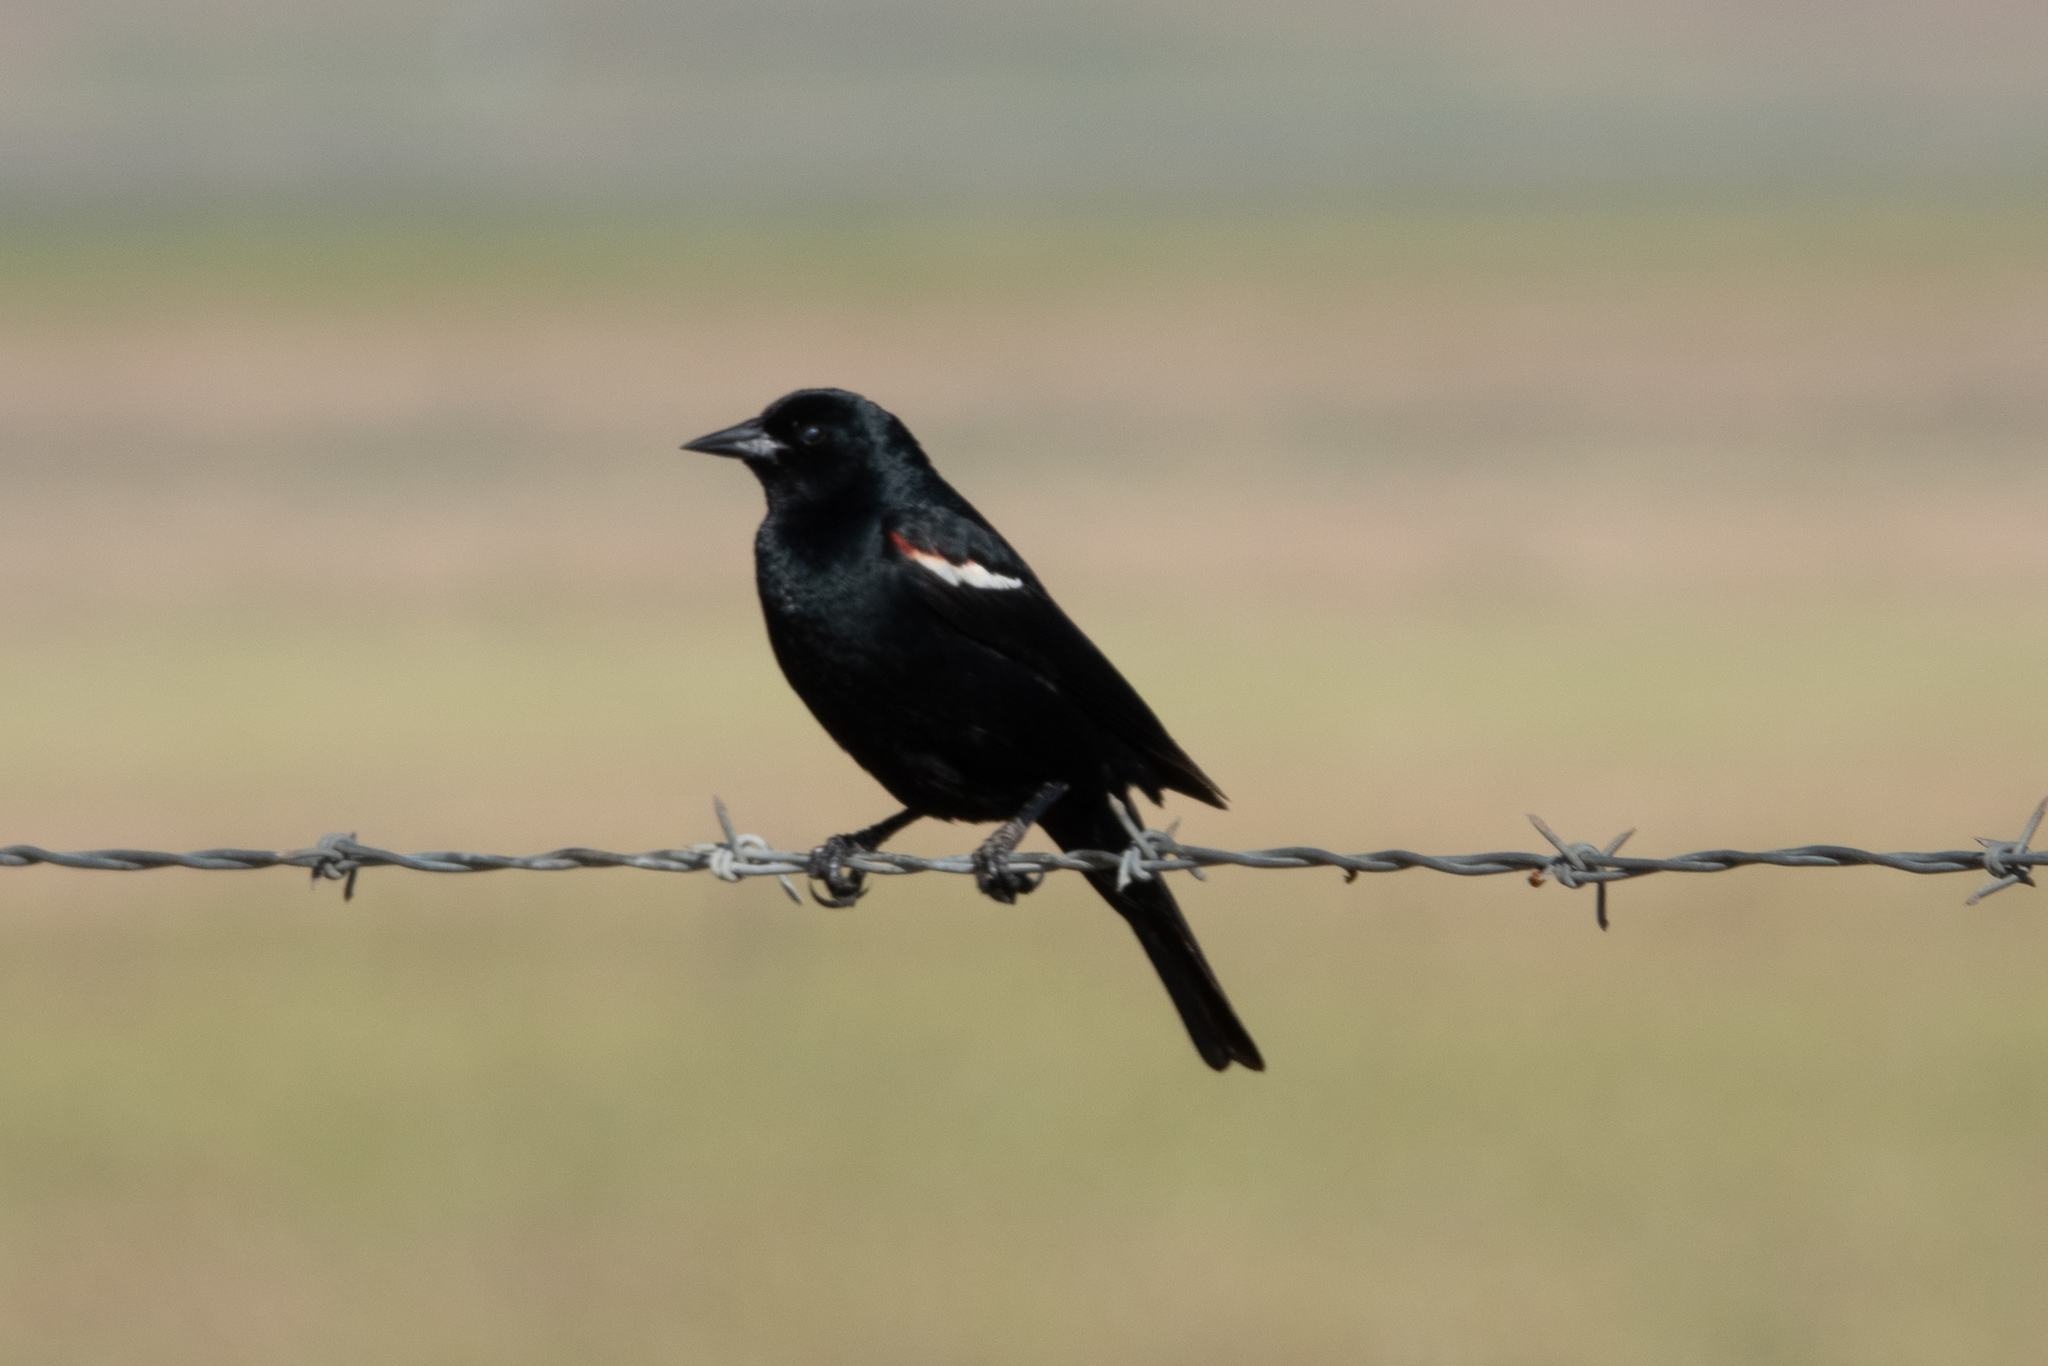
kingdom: Animalia
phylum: Chordata
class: Aves
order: Passeriformes
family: Icteridae
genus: Agelaius
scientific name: Agelaius tricolor
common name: Tricolored blackbird
